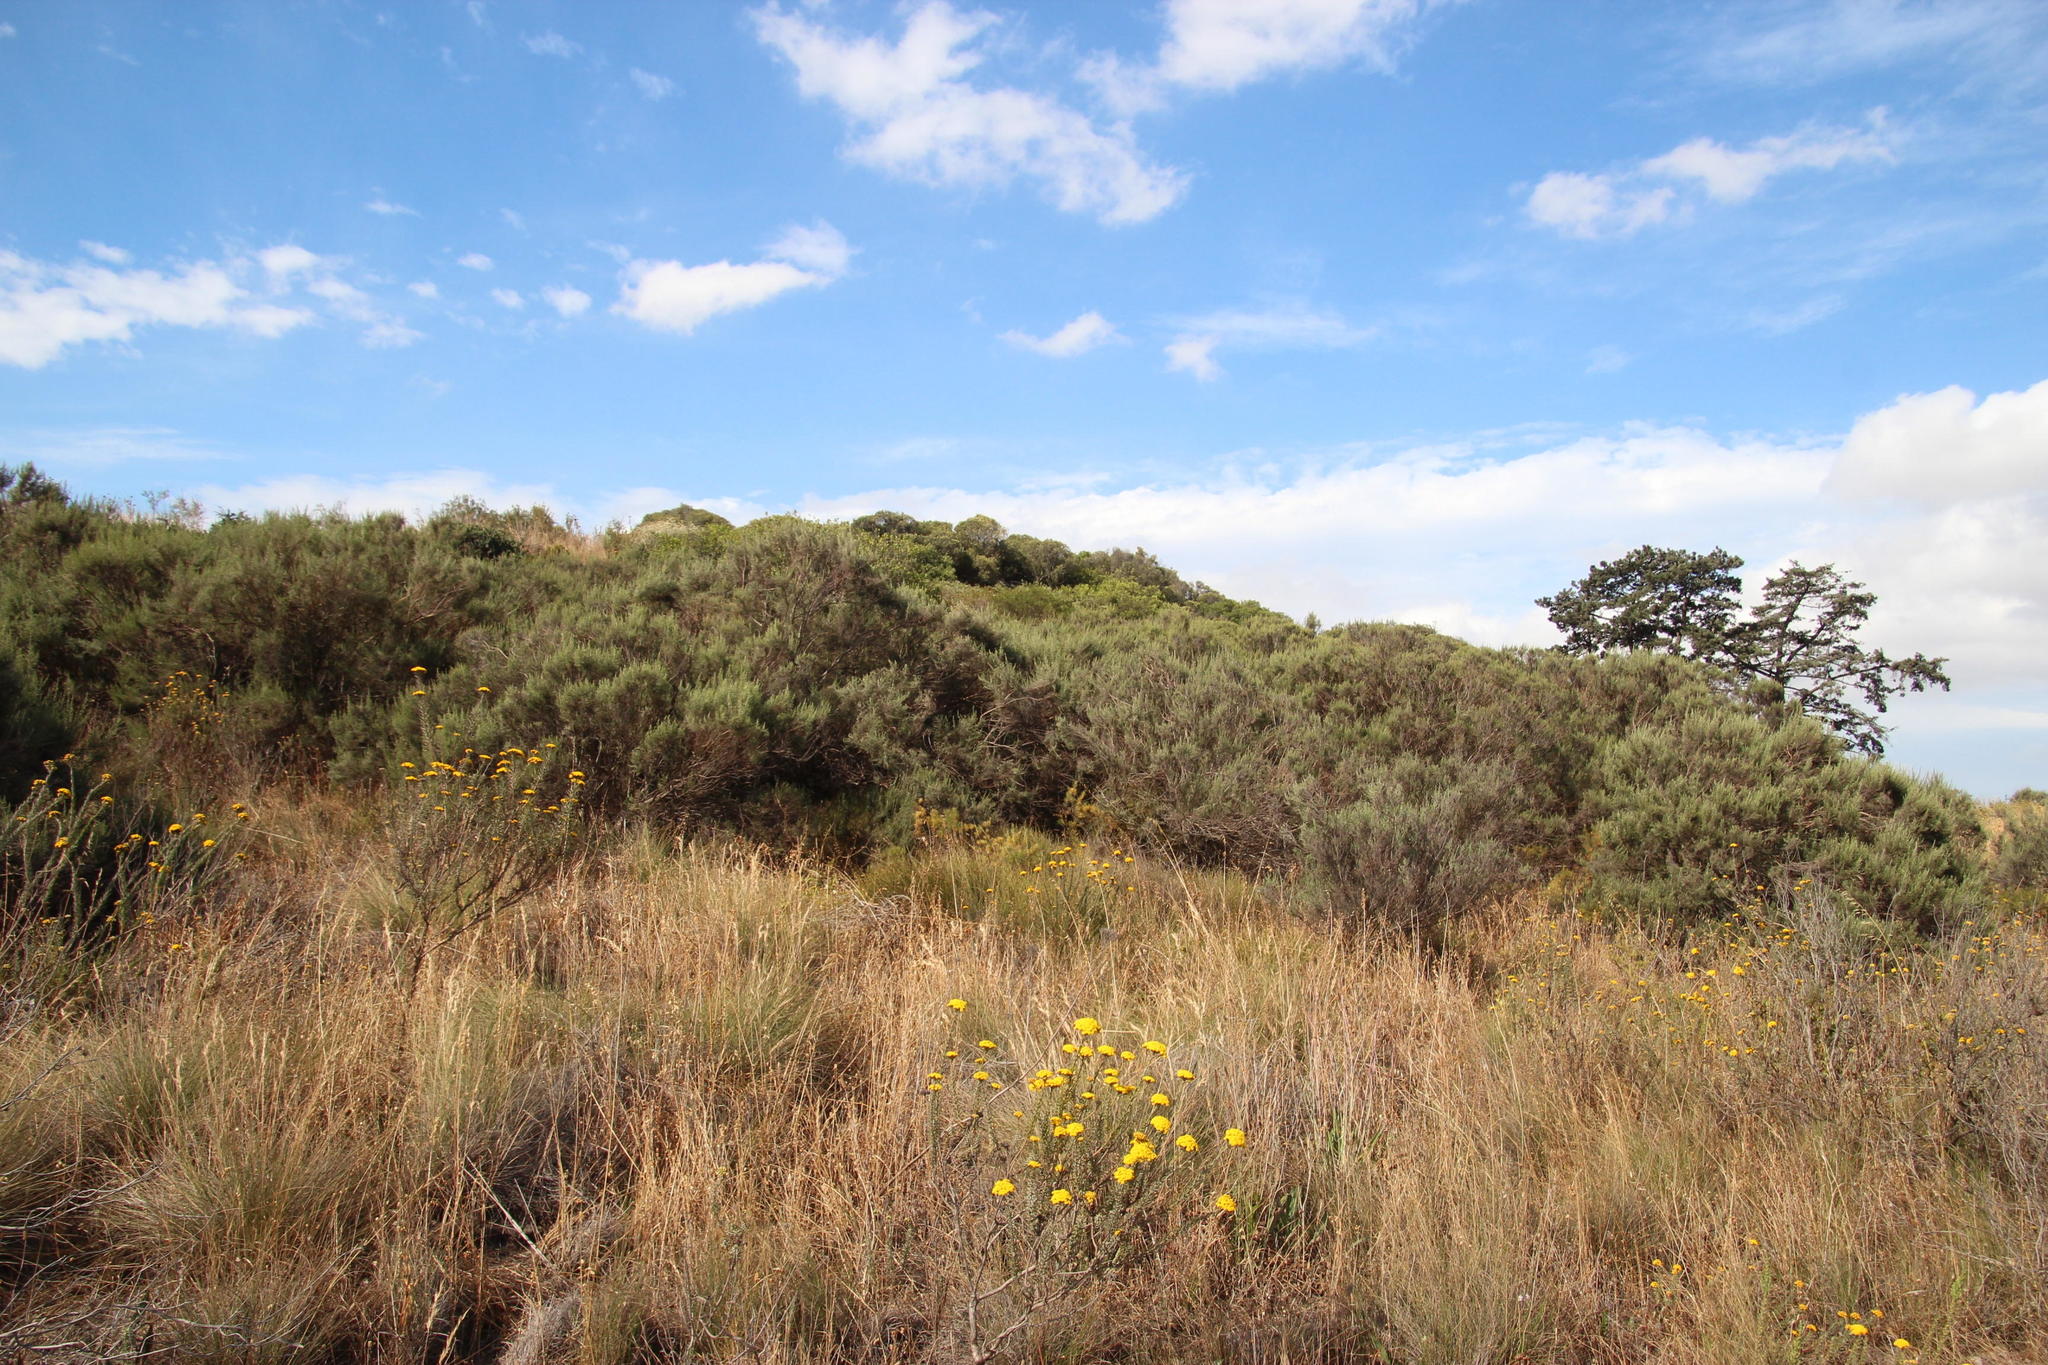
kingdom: Plantae
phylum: Tracheophyta
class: Magnoliopsida
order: Asterales
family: Asteraceae
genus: Dicerothamnus
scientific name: Dicerothamnus rhinocerotis
